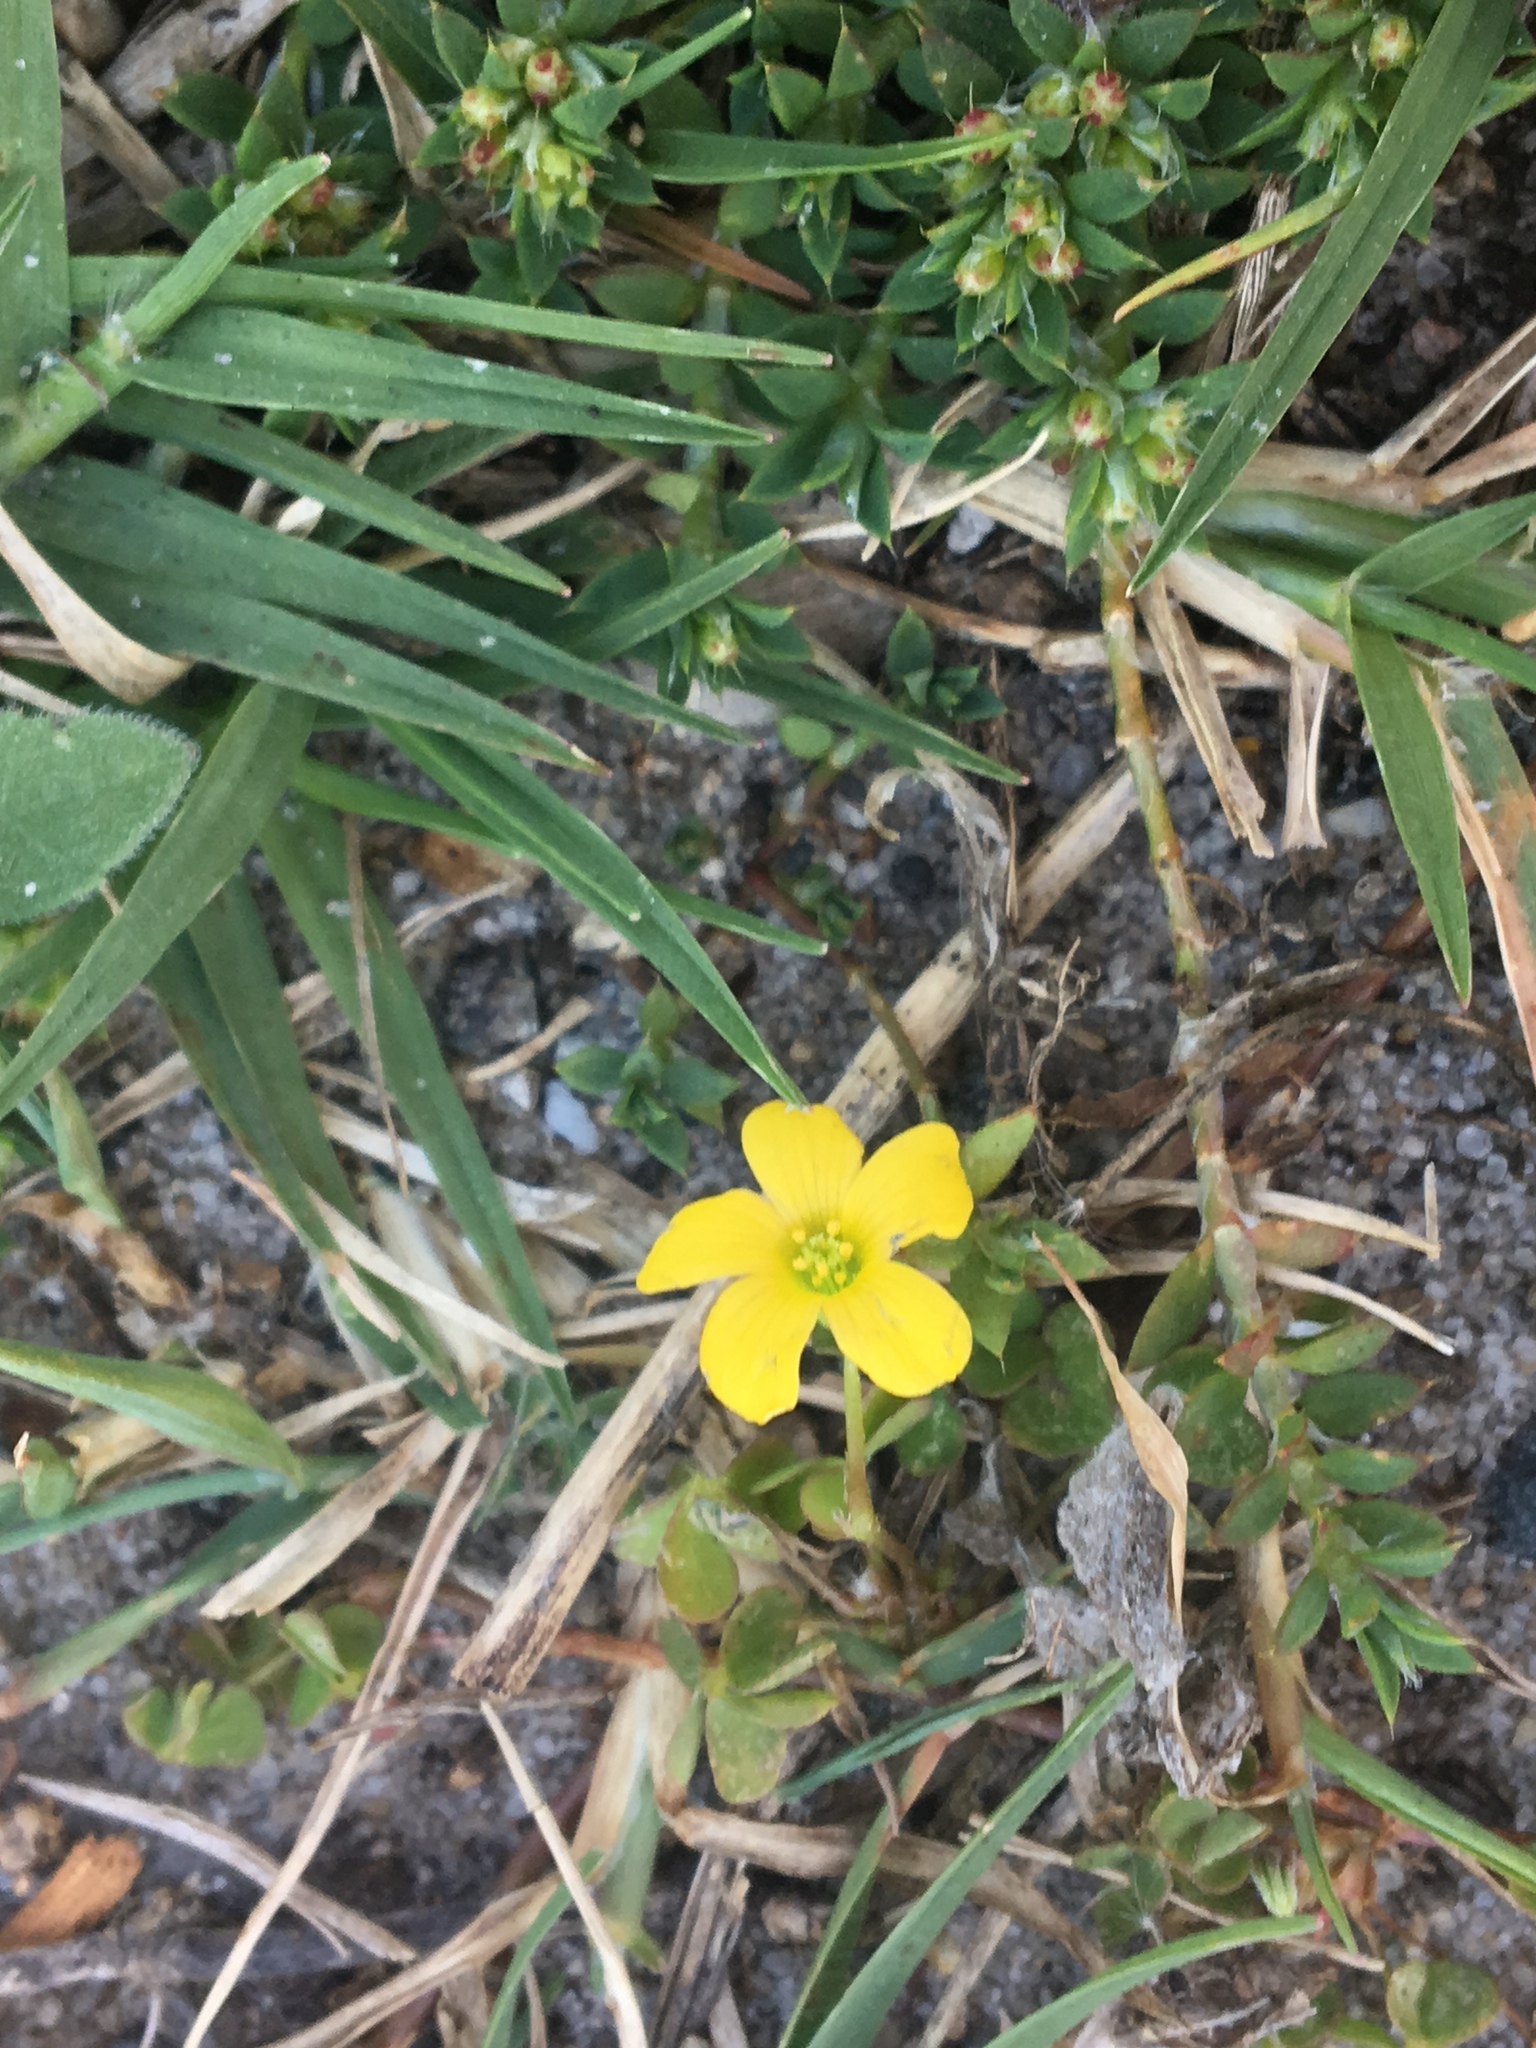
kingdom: Plantae
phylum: Tracheophyta
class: Magnoliopsida
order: Oxalidales
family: Oxalidaceae
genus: Oxalis
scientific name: Oxalis corniculata
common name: Procumbent yellow-sorrel
